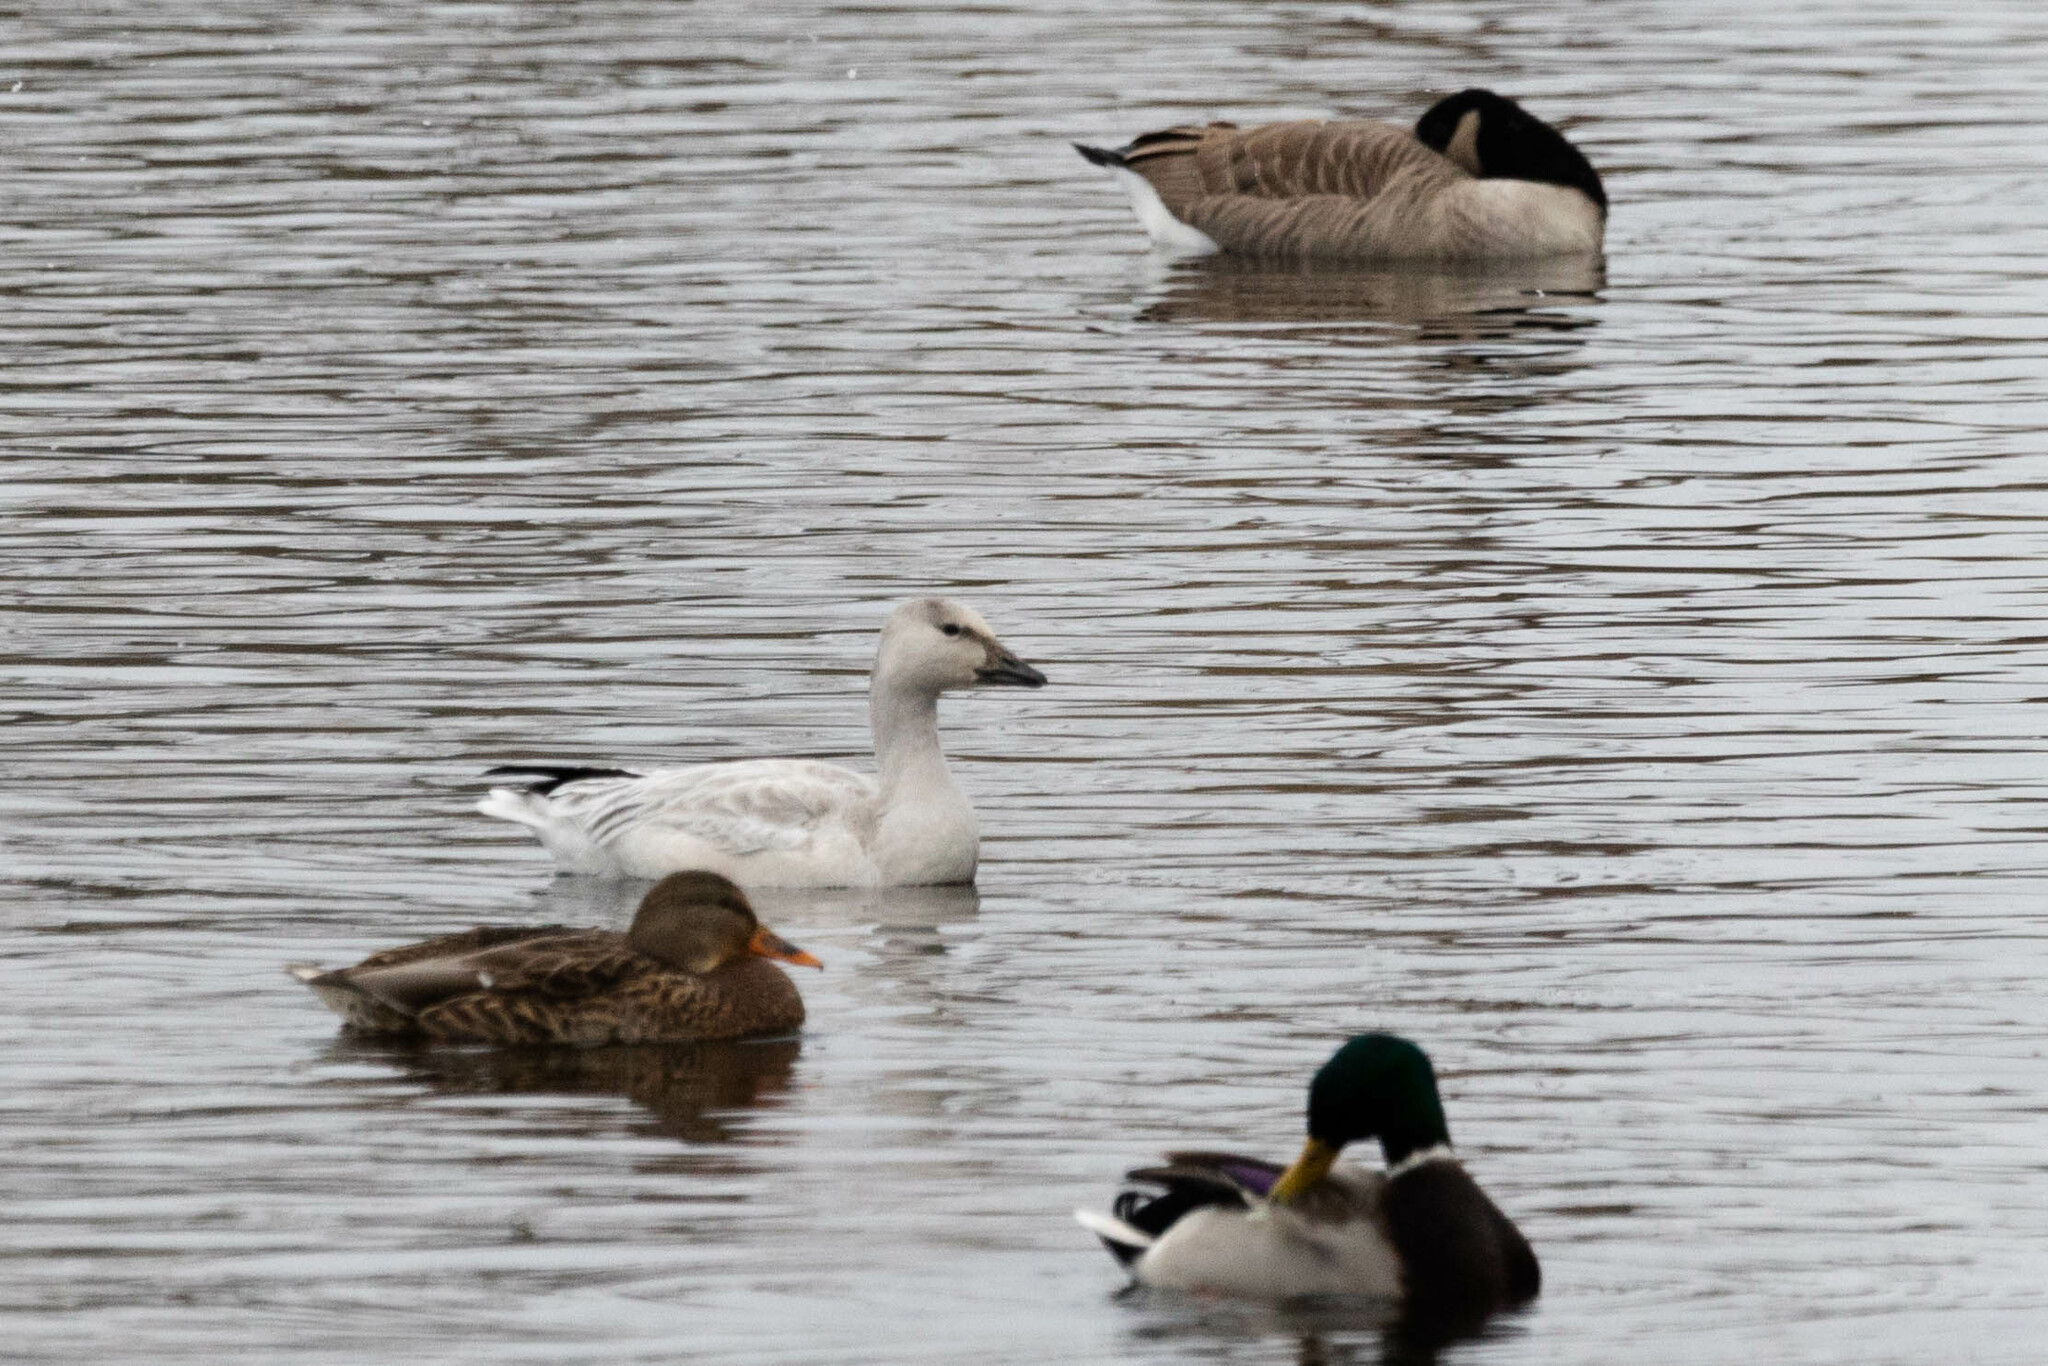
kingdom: Animalia
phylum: Chordata
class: Aves
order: Anseriformes
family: Anatidae
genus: Anser
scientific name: Anser caerulescens
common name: Snow goose
